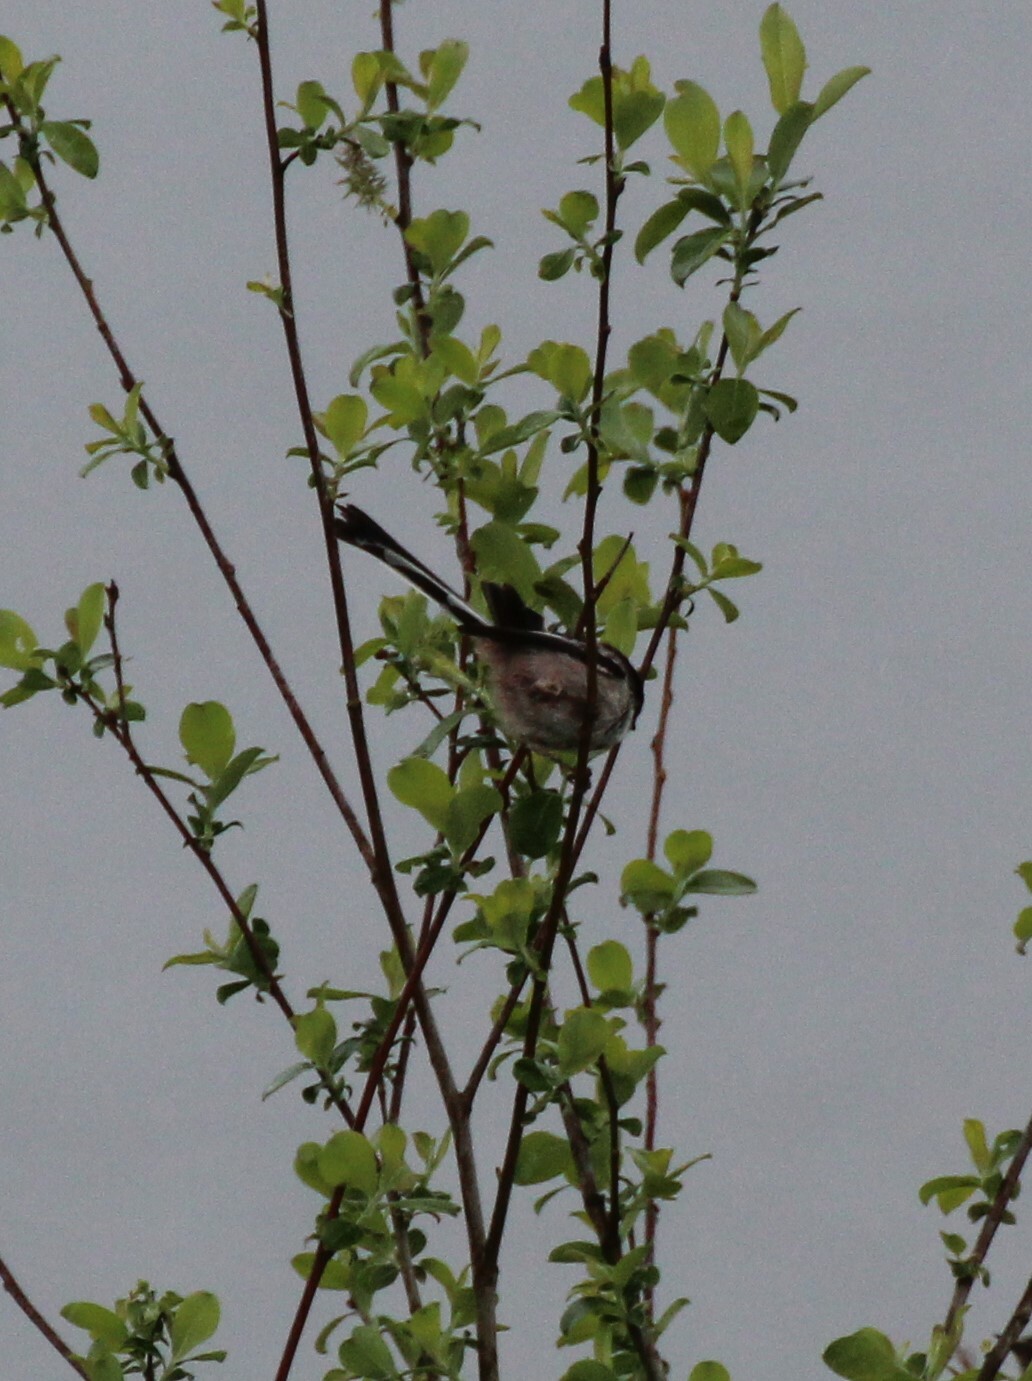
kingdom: Animalia
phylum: Chordata
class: Aves
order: Passeriformes
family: Aegithalidae
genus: Aegithalos
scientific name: Aegithalos caudatus
